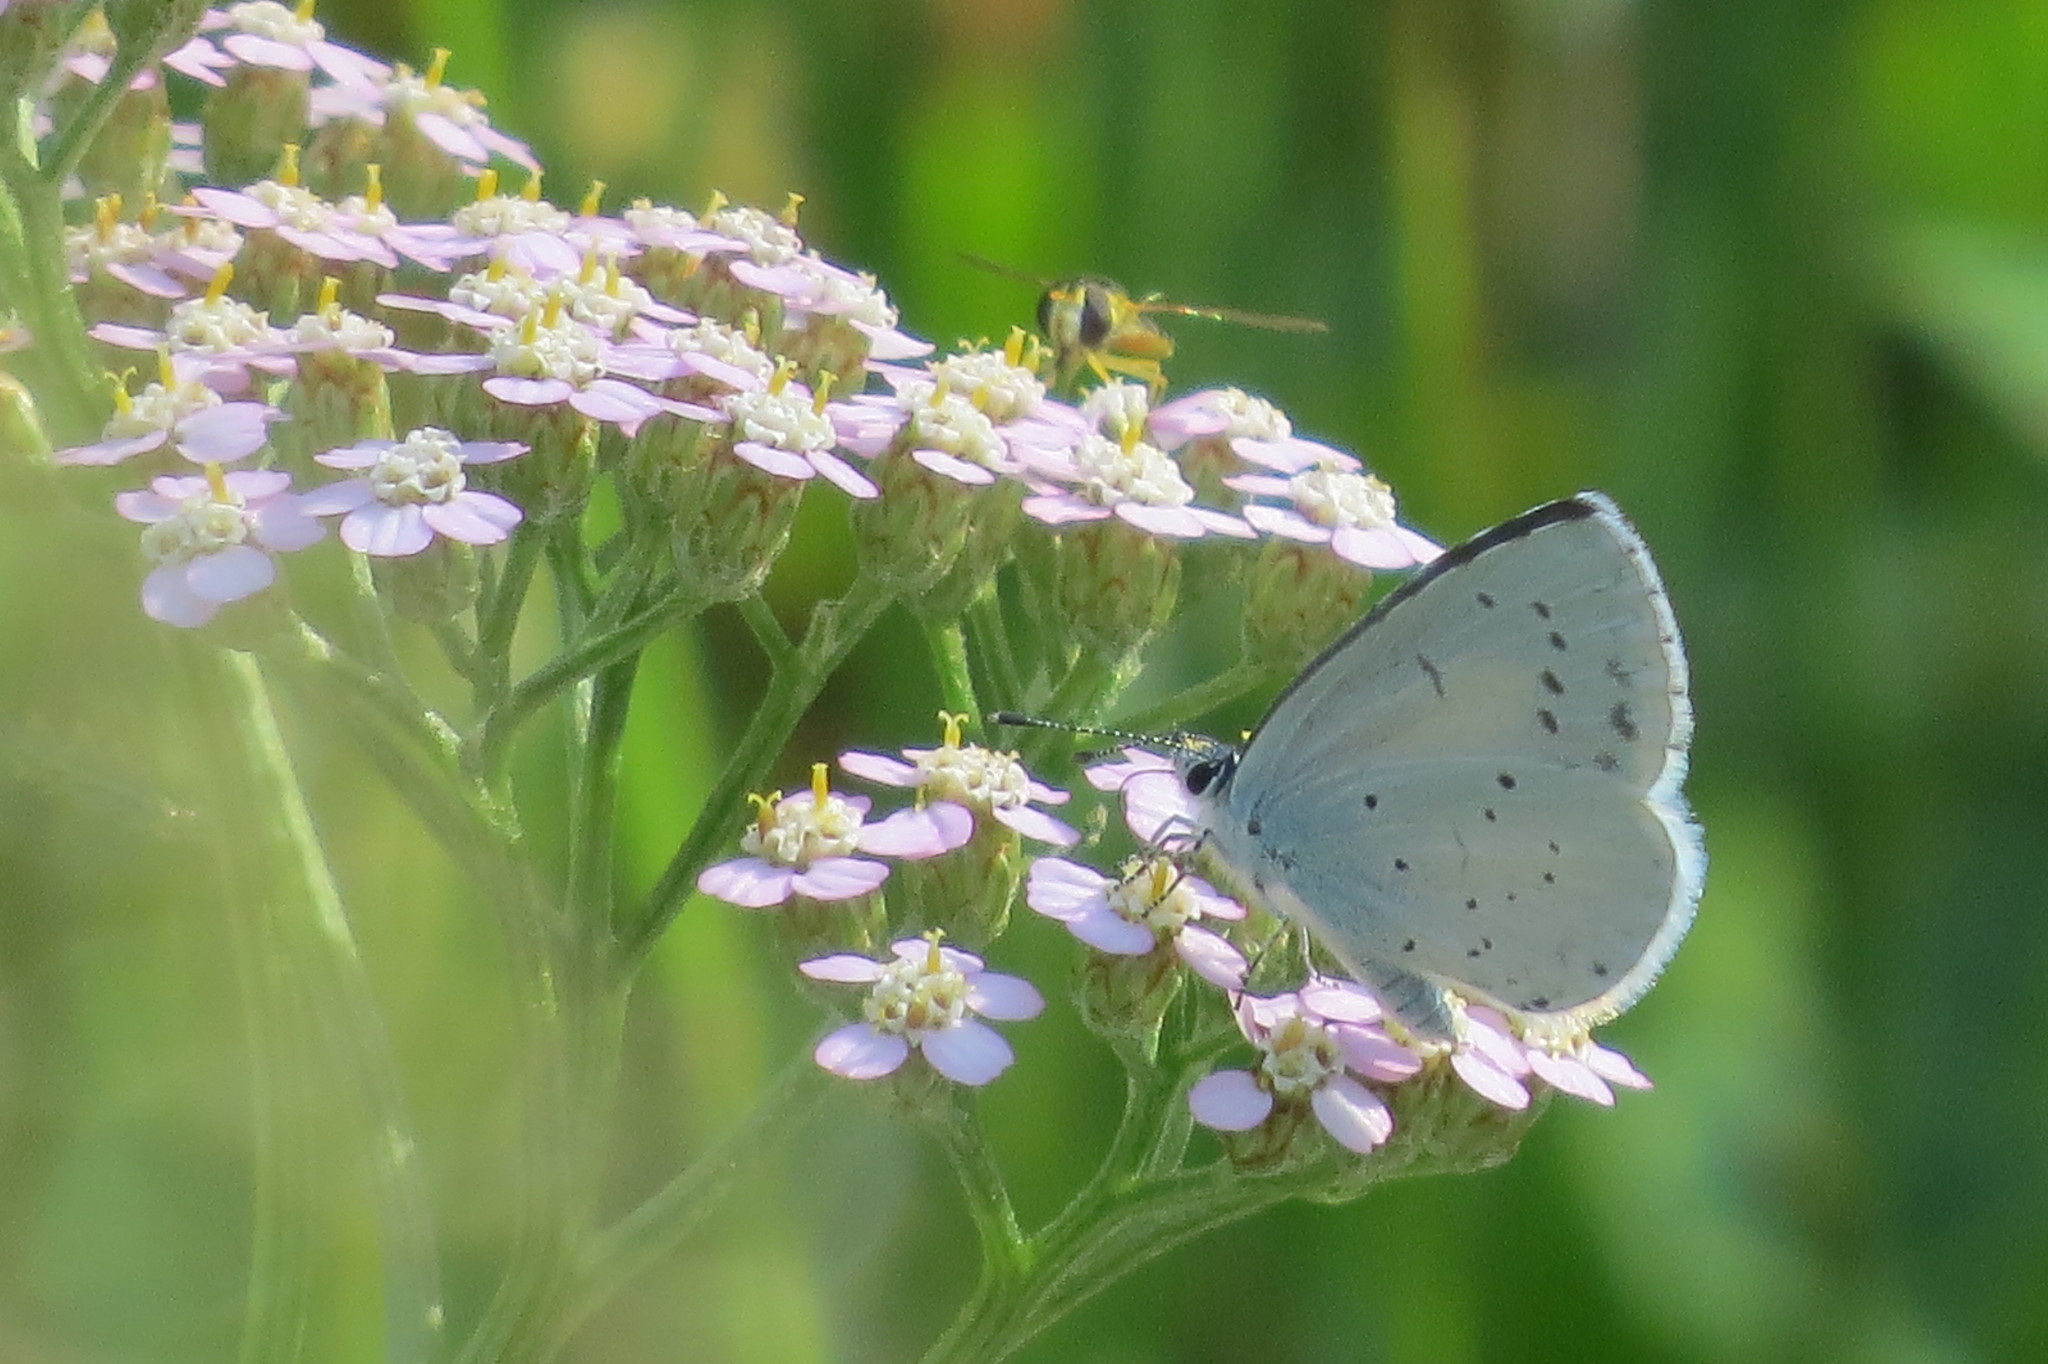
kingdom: Animalia
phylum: Arthropoda
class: Insecta
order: Lepidoptera
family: Lycaenidae
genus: Celastrina
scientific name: Celastrina argiolus
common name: Holly blue
